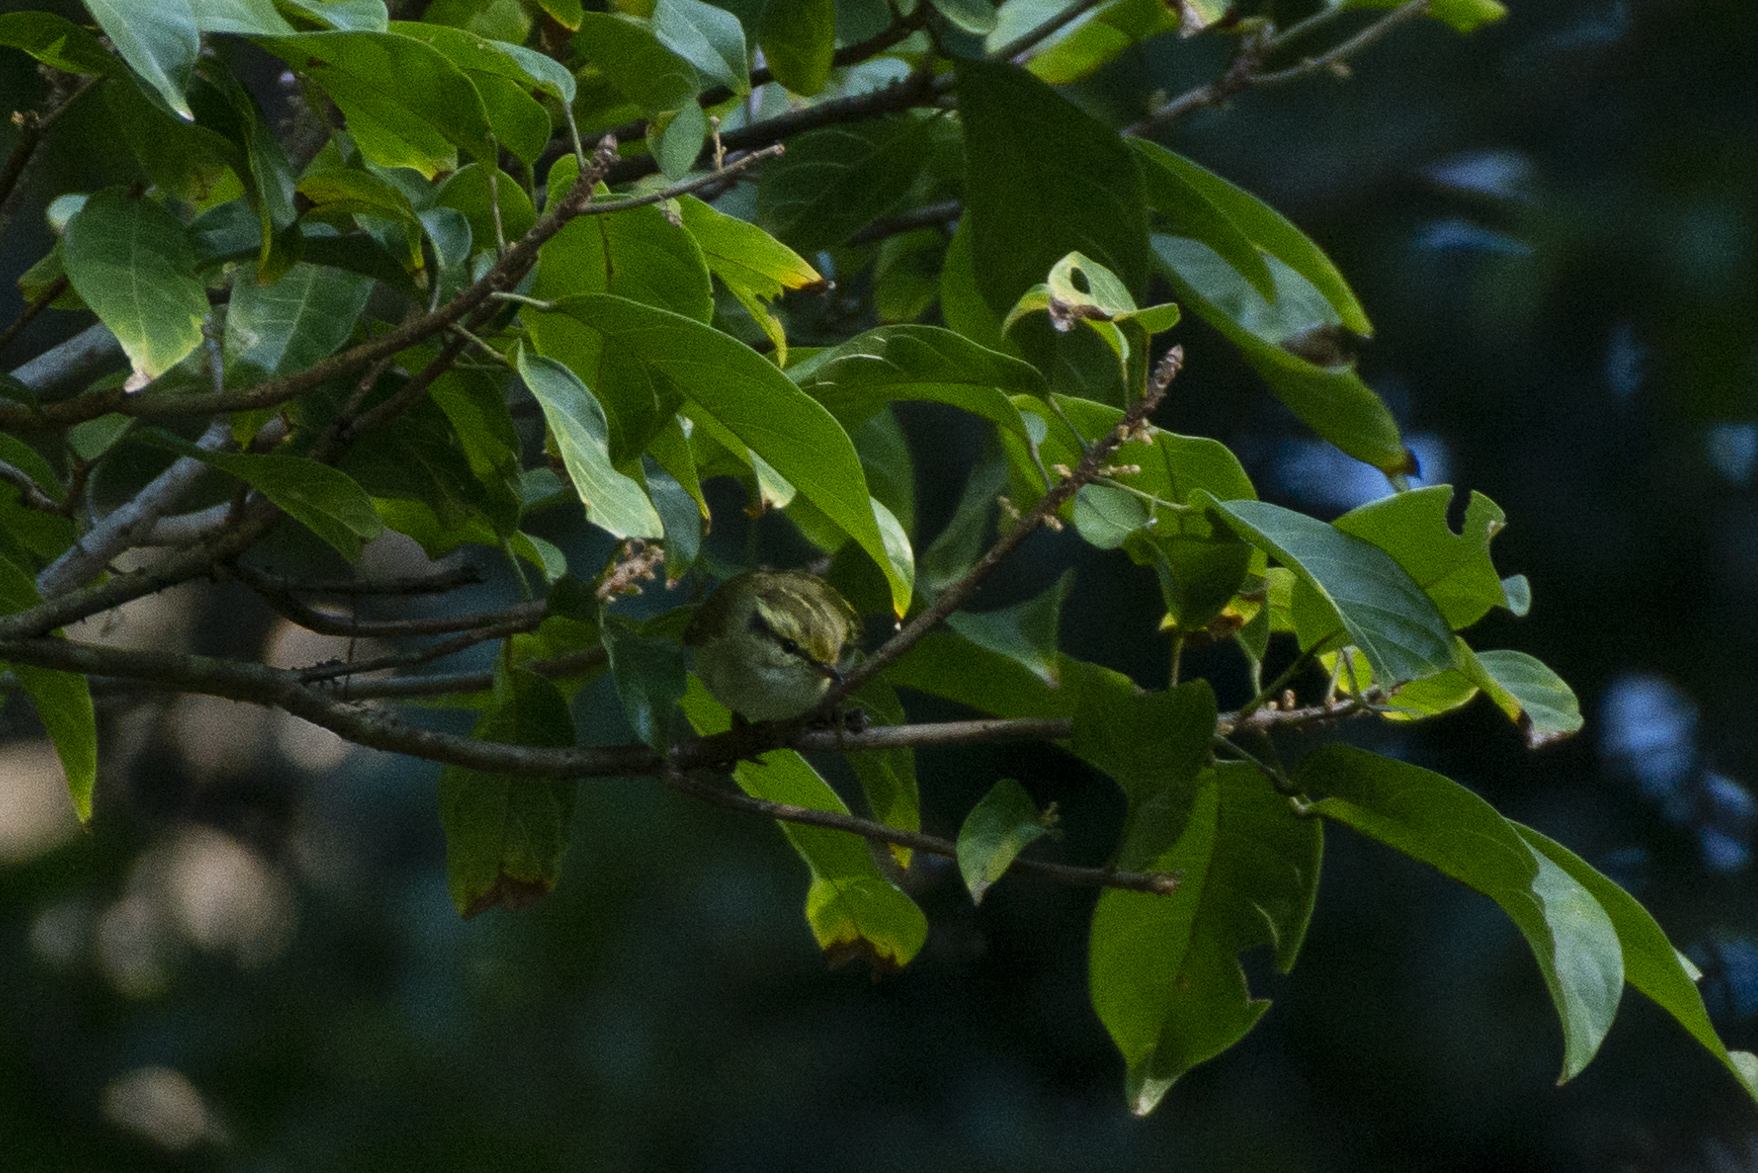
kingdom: Animalia
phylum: Chordata
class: Aves
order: Passeriformes
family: Phylloscopidae
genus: Phylloscopus
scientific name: Phylloscopus proregulus
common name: Pallas's leaf warbler
